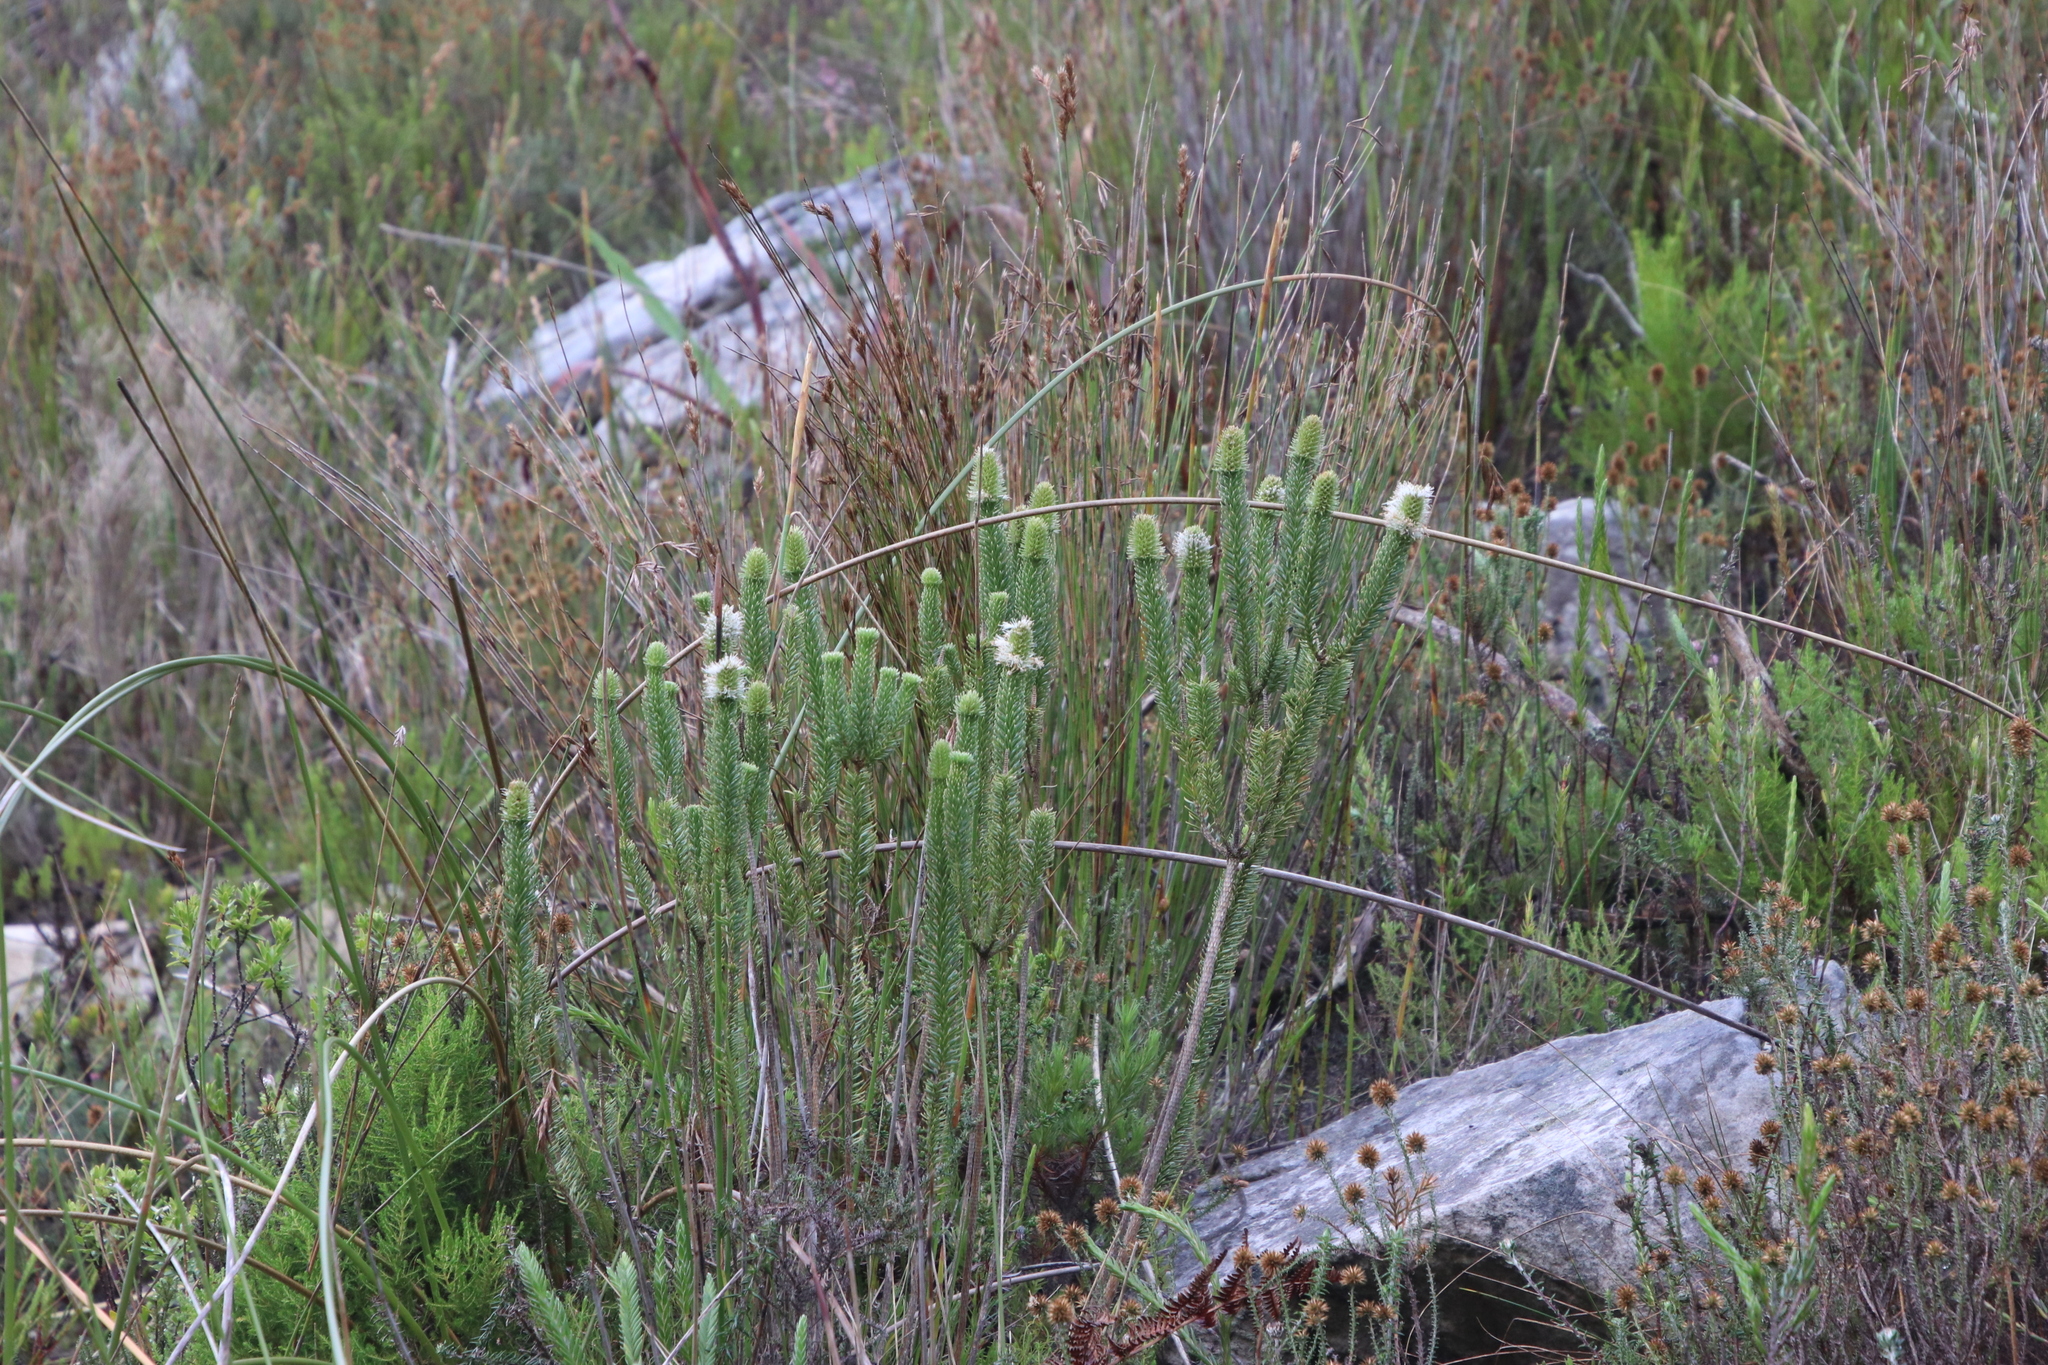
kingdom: Plantae
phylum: Tracheophyta
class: Magnoliopsida
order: Lamiales
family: Stilbaceae
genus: Stilbe
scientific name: Stilbe vestita
